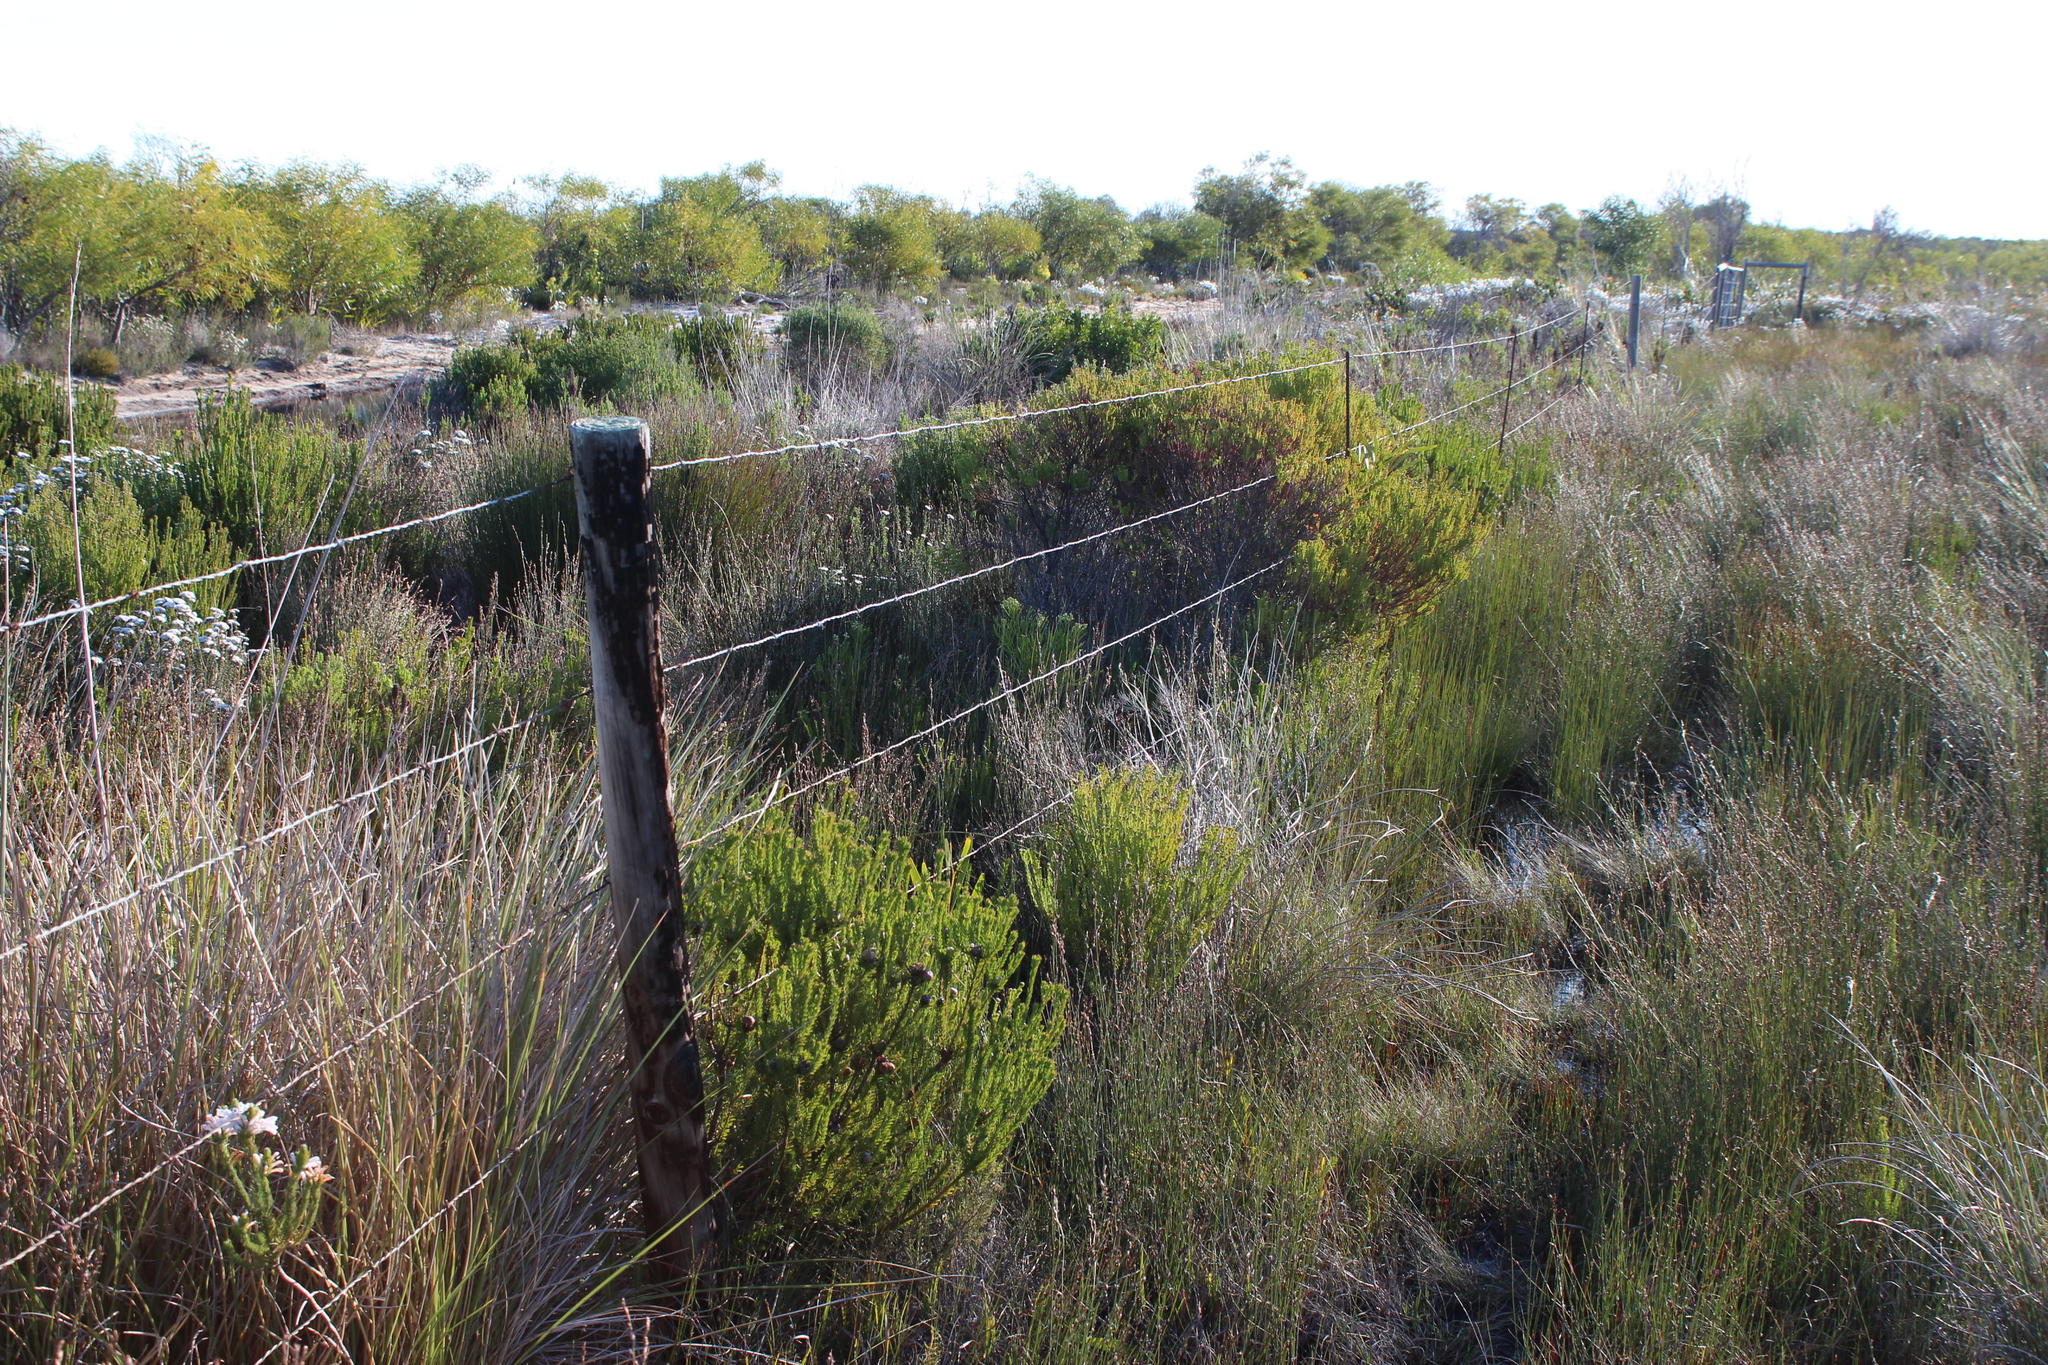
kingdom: Plantae
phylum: Tracheophyta
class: Magnoliopsida
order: Proteales
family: Proteaceae
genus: Leucadendron
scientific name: Leucadendron linifolium
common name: Line-leaf conebush
